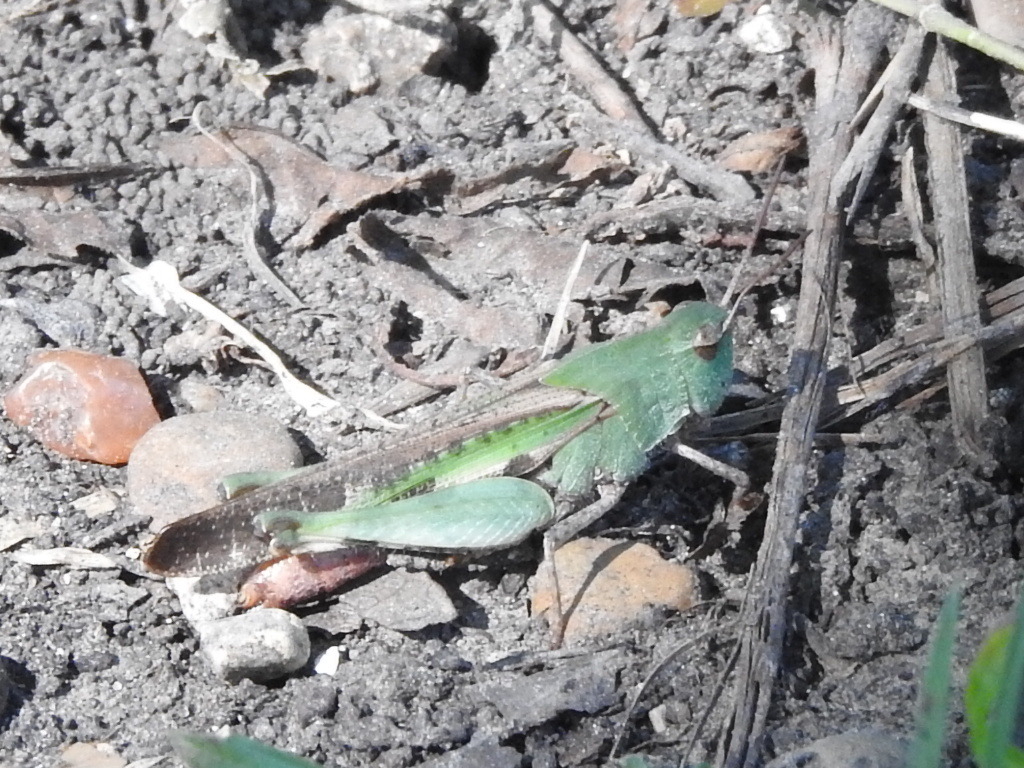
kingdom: Animalia
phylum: Arthropoda
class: Insecta
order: Orthoptera
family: Acrididae
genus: Chortophaga
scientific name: Chortophaga viridifasciata
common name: Green-striped grasshopper
